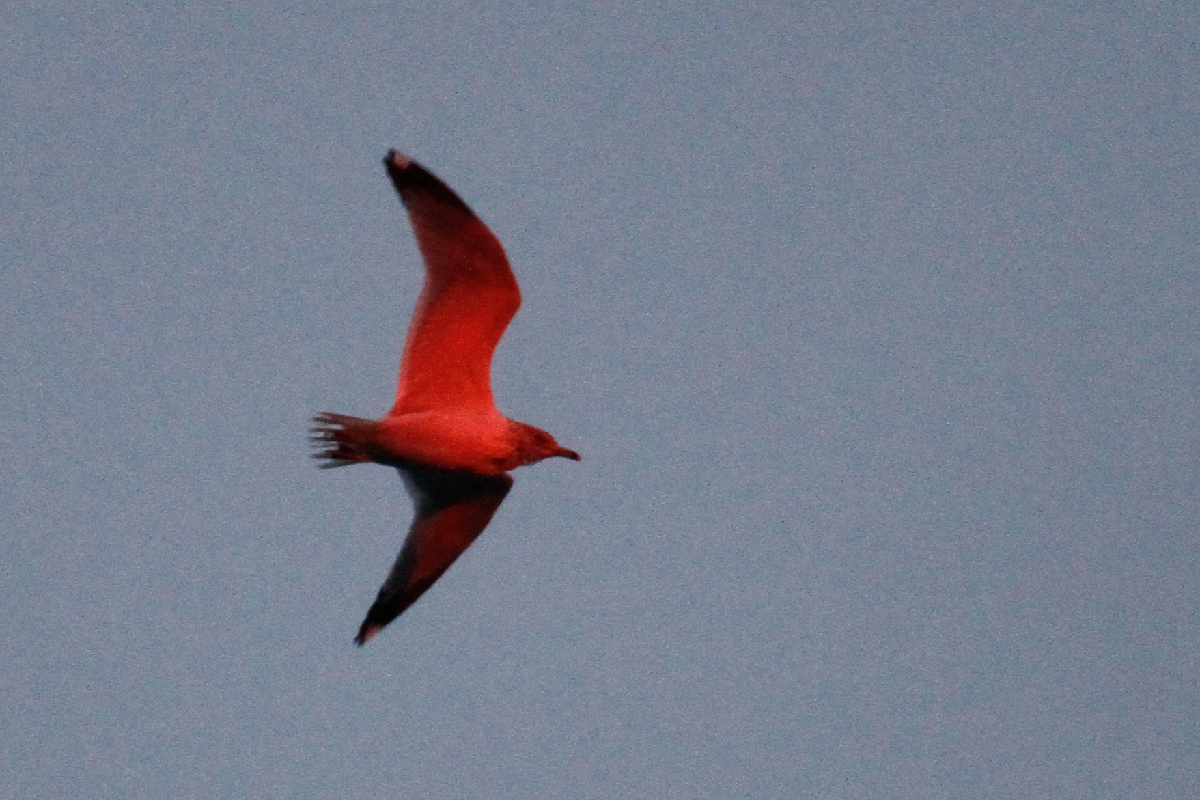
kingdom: Animalia
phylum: Chordata
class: Aves
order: Charadriiformes
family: Laridae
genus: Larus
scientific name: Larus delawarensis
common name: Ring-billed gull
